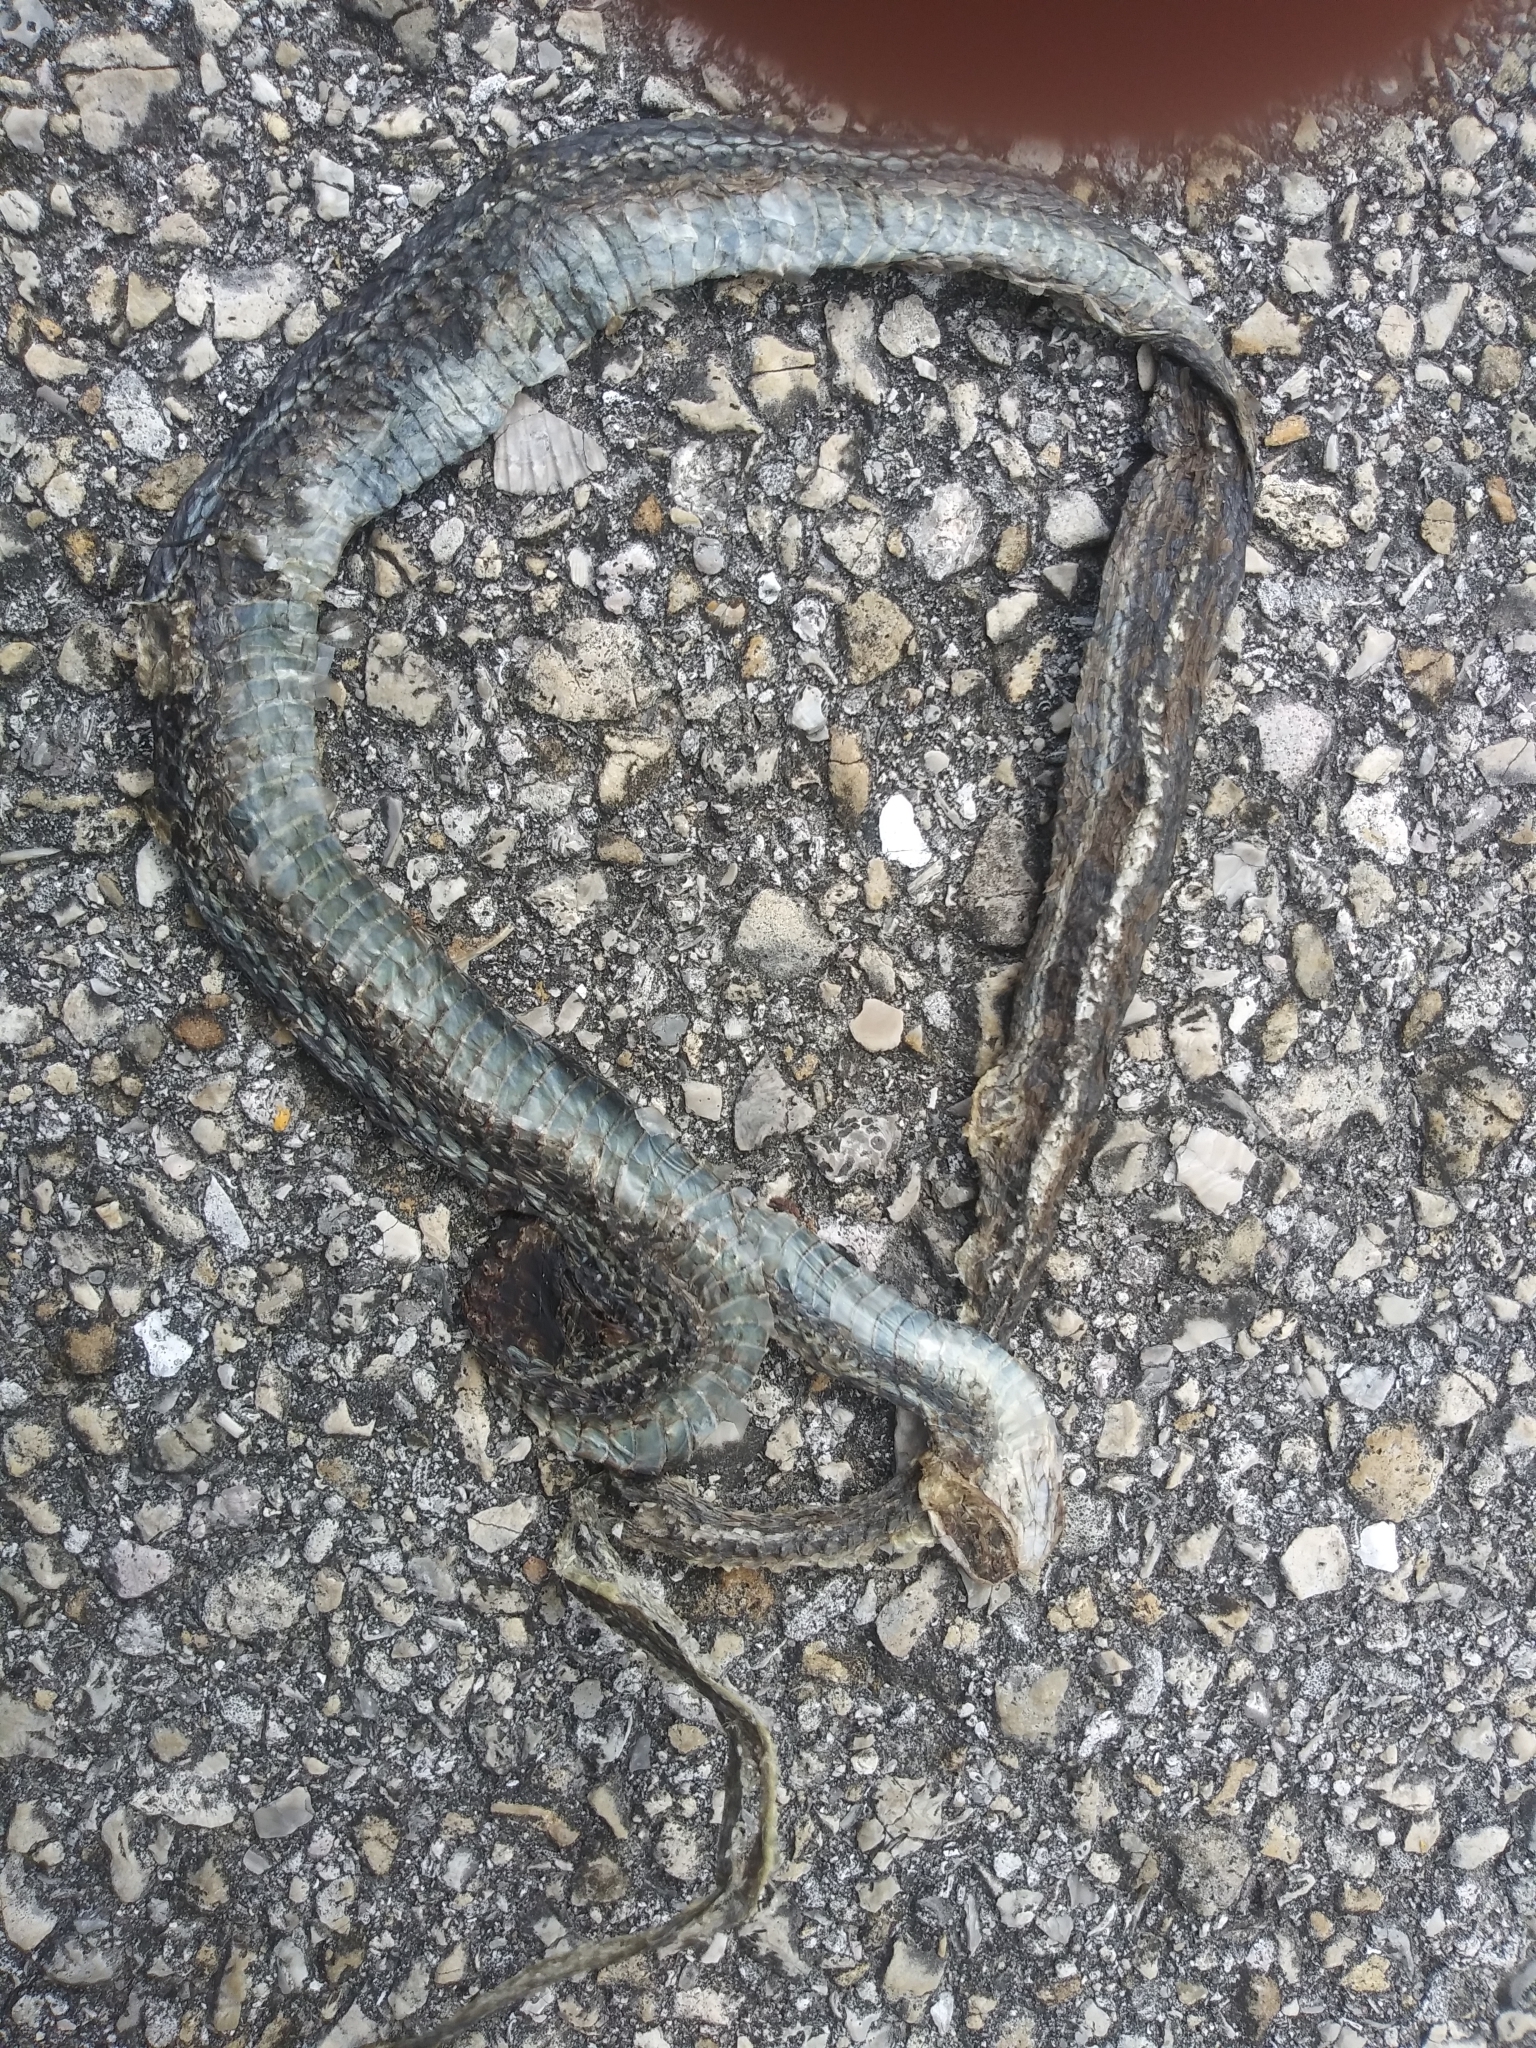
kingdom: Animalia
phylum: Chordata
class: Squamata
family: Colubridae
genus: Thamnophis
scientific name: Thamnophis saurita
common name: Eastern ribbonsnake
